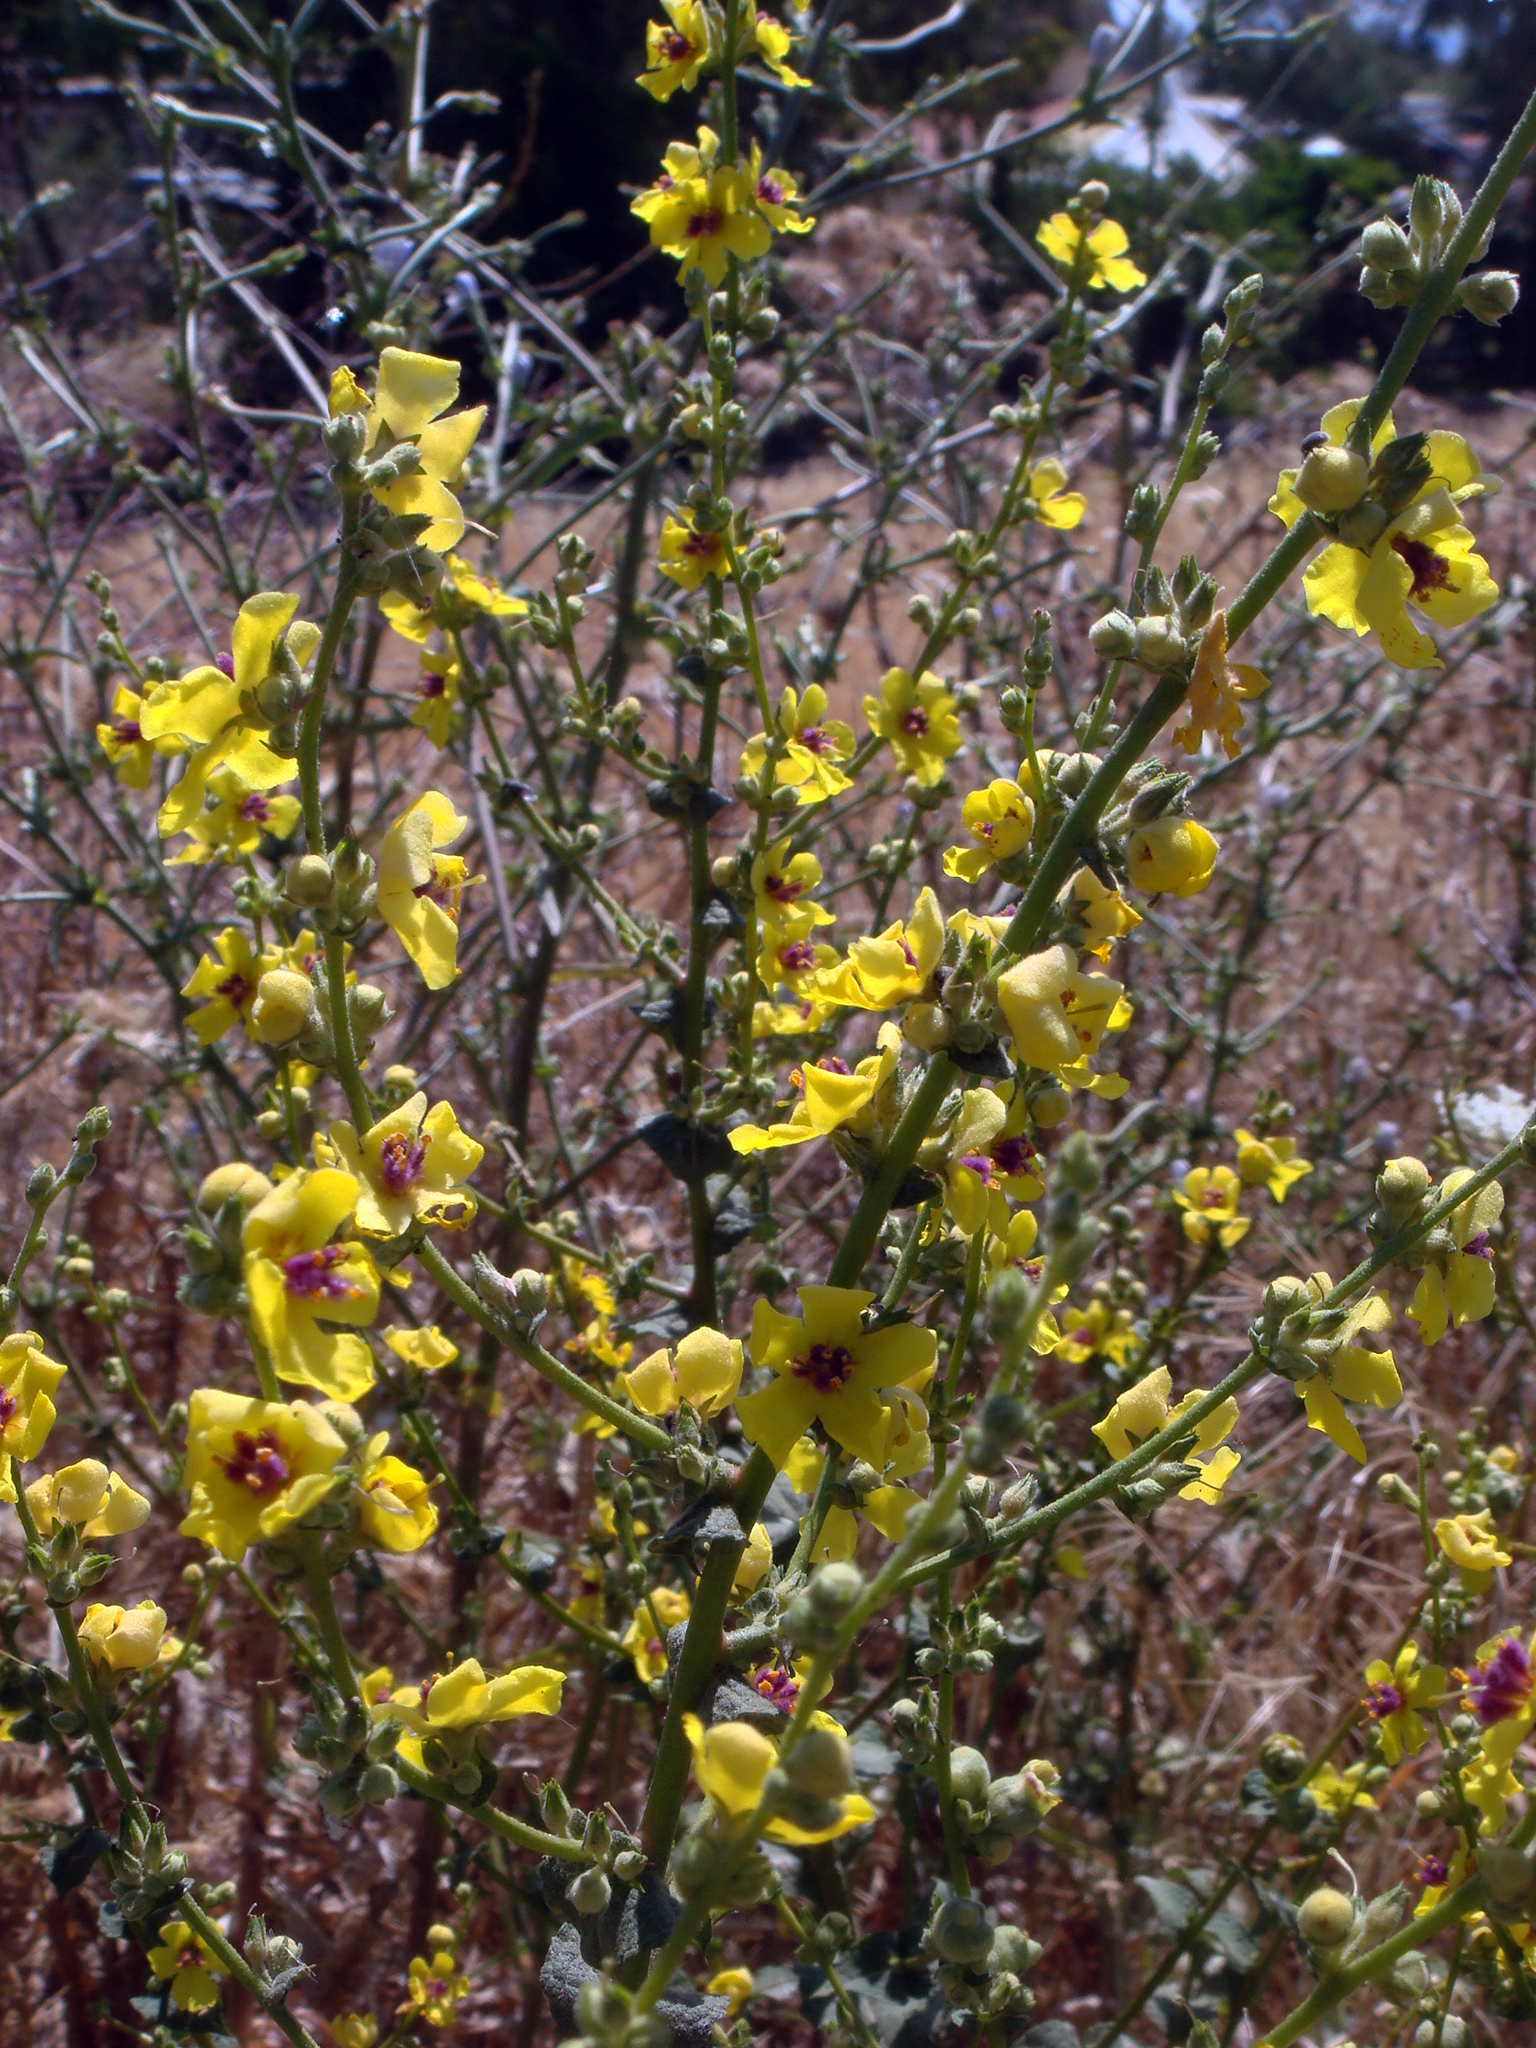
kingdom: Plantae
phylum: Tracheophyta
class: Magnoliopsida
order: Lamiales
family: Scrophulariaceae
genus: Verbascum
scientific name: Verbascum pulverulentum
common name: Broad-leaf mullein
